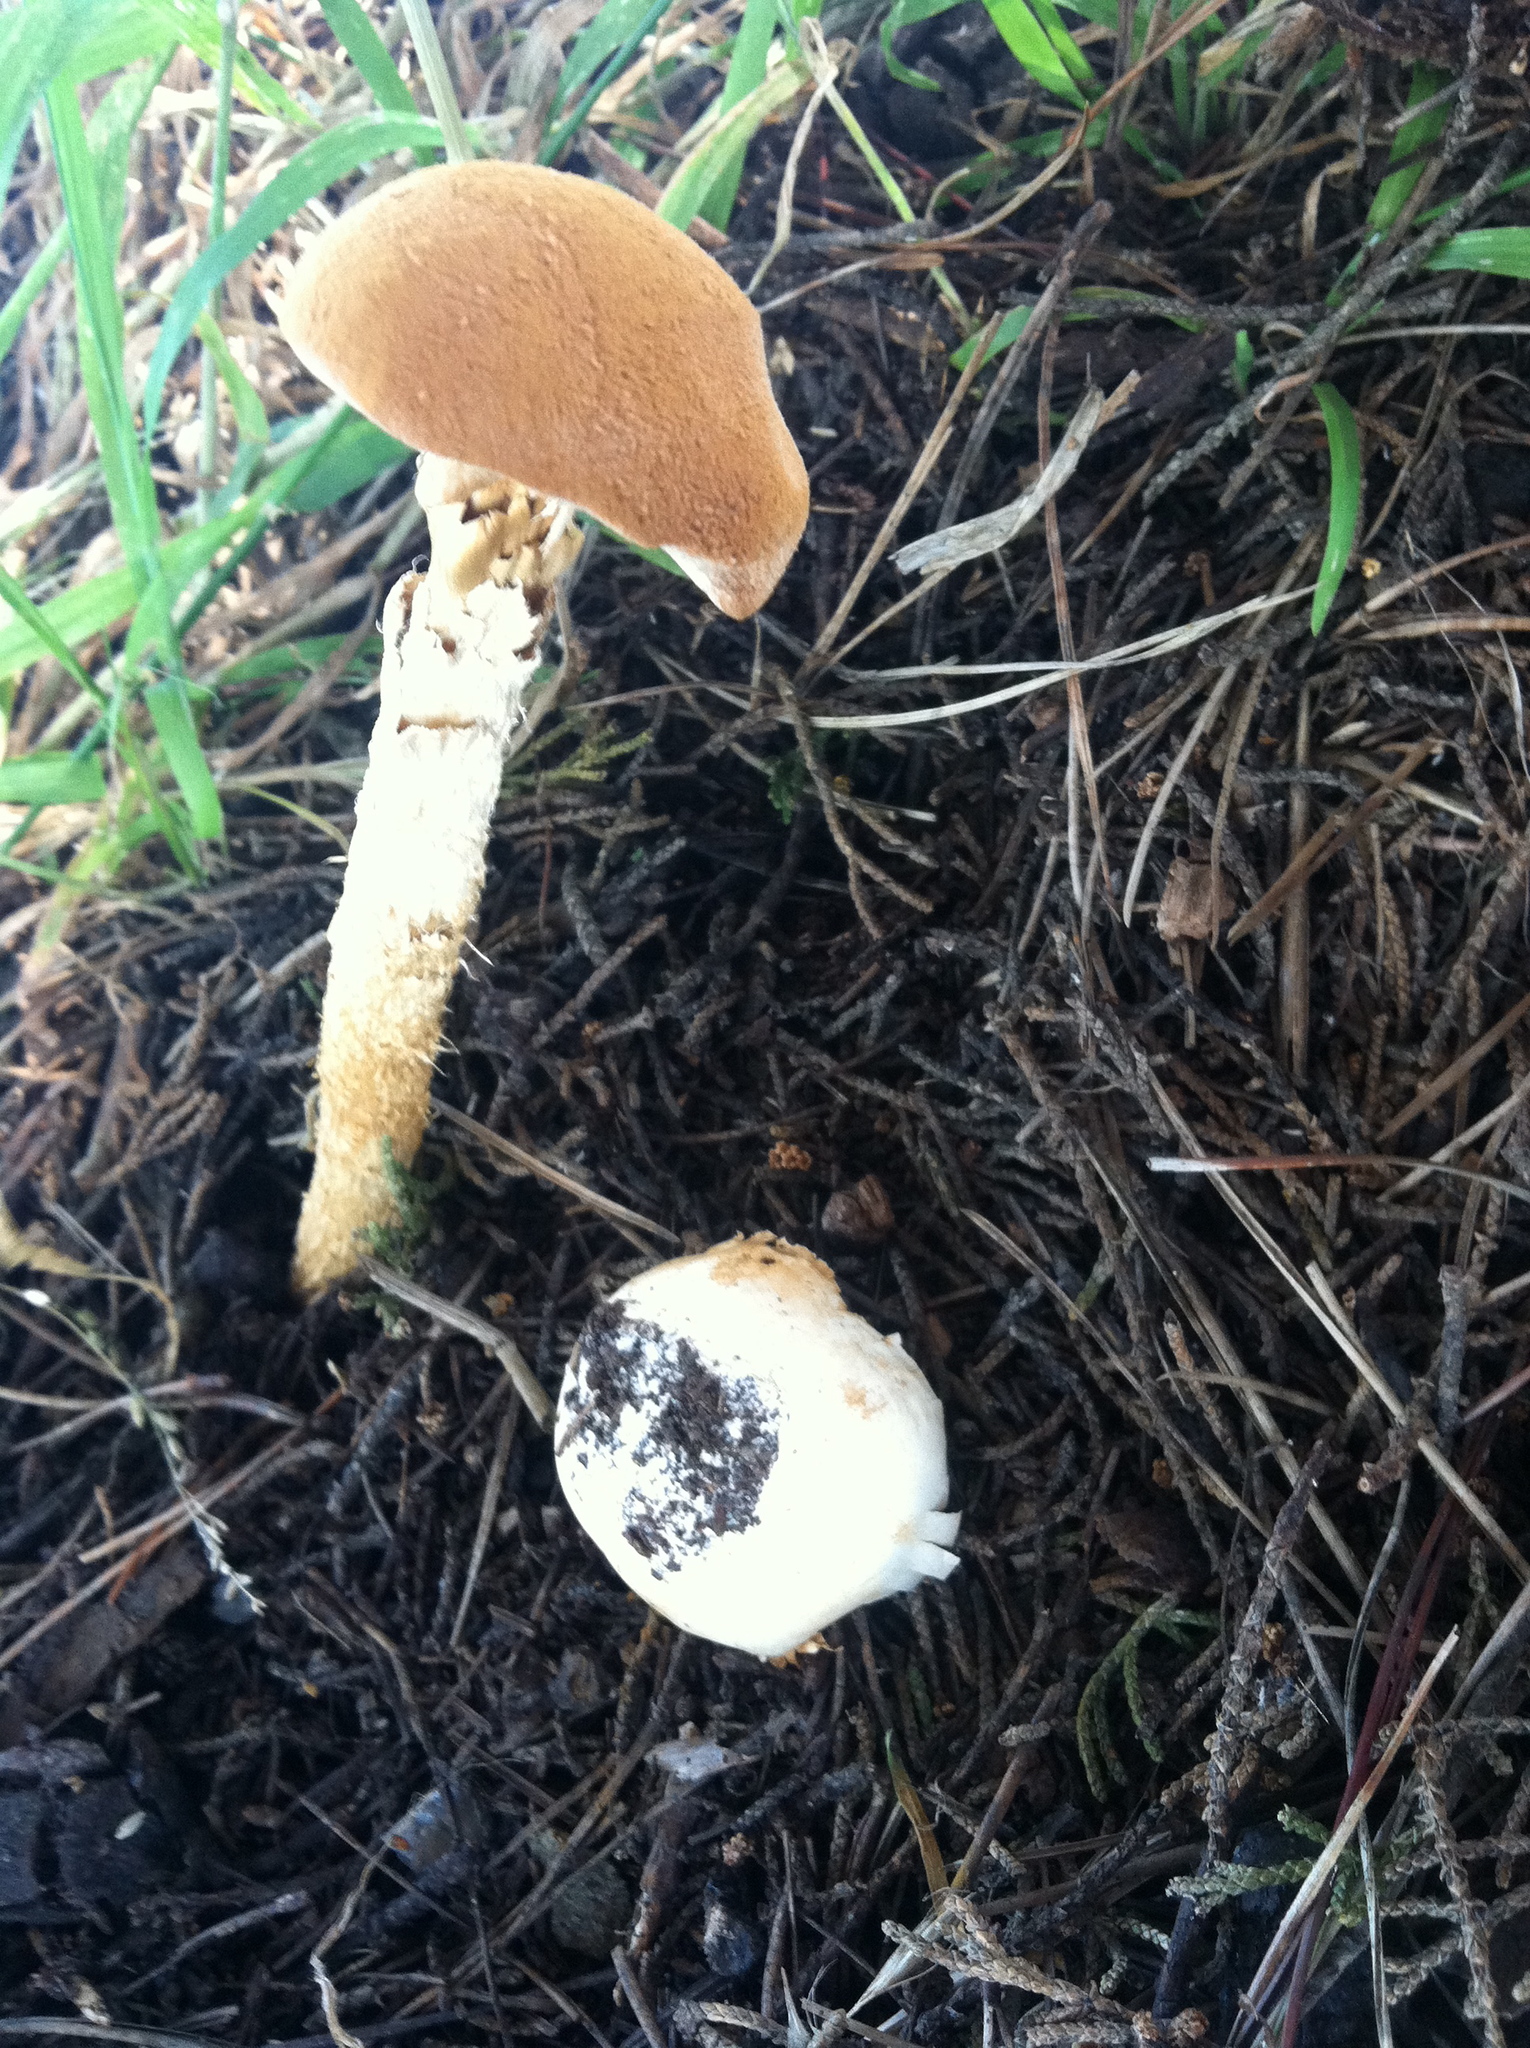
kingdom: Fungi
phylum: Basidiomycota
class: Agaricomycetes
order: Agaricales
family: Agaricaceae
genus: Battarrea
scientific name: Battarrea phalloides
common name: Sandy stiltball
